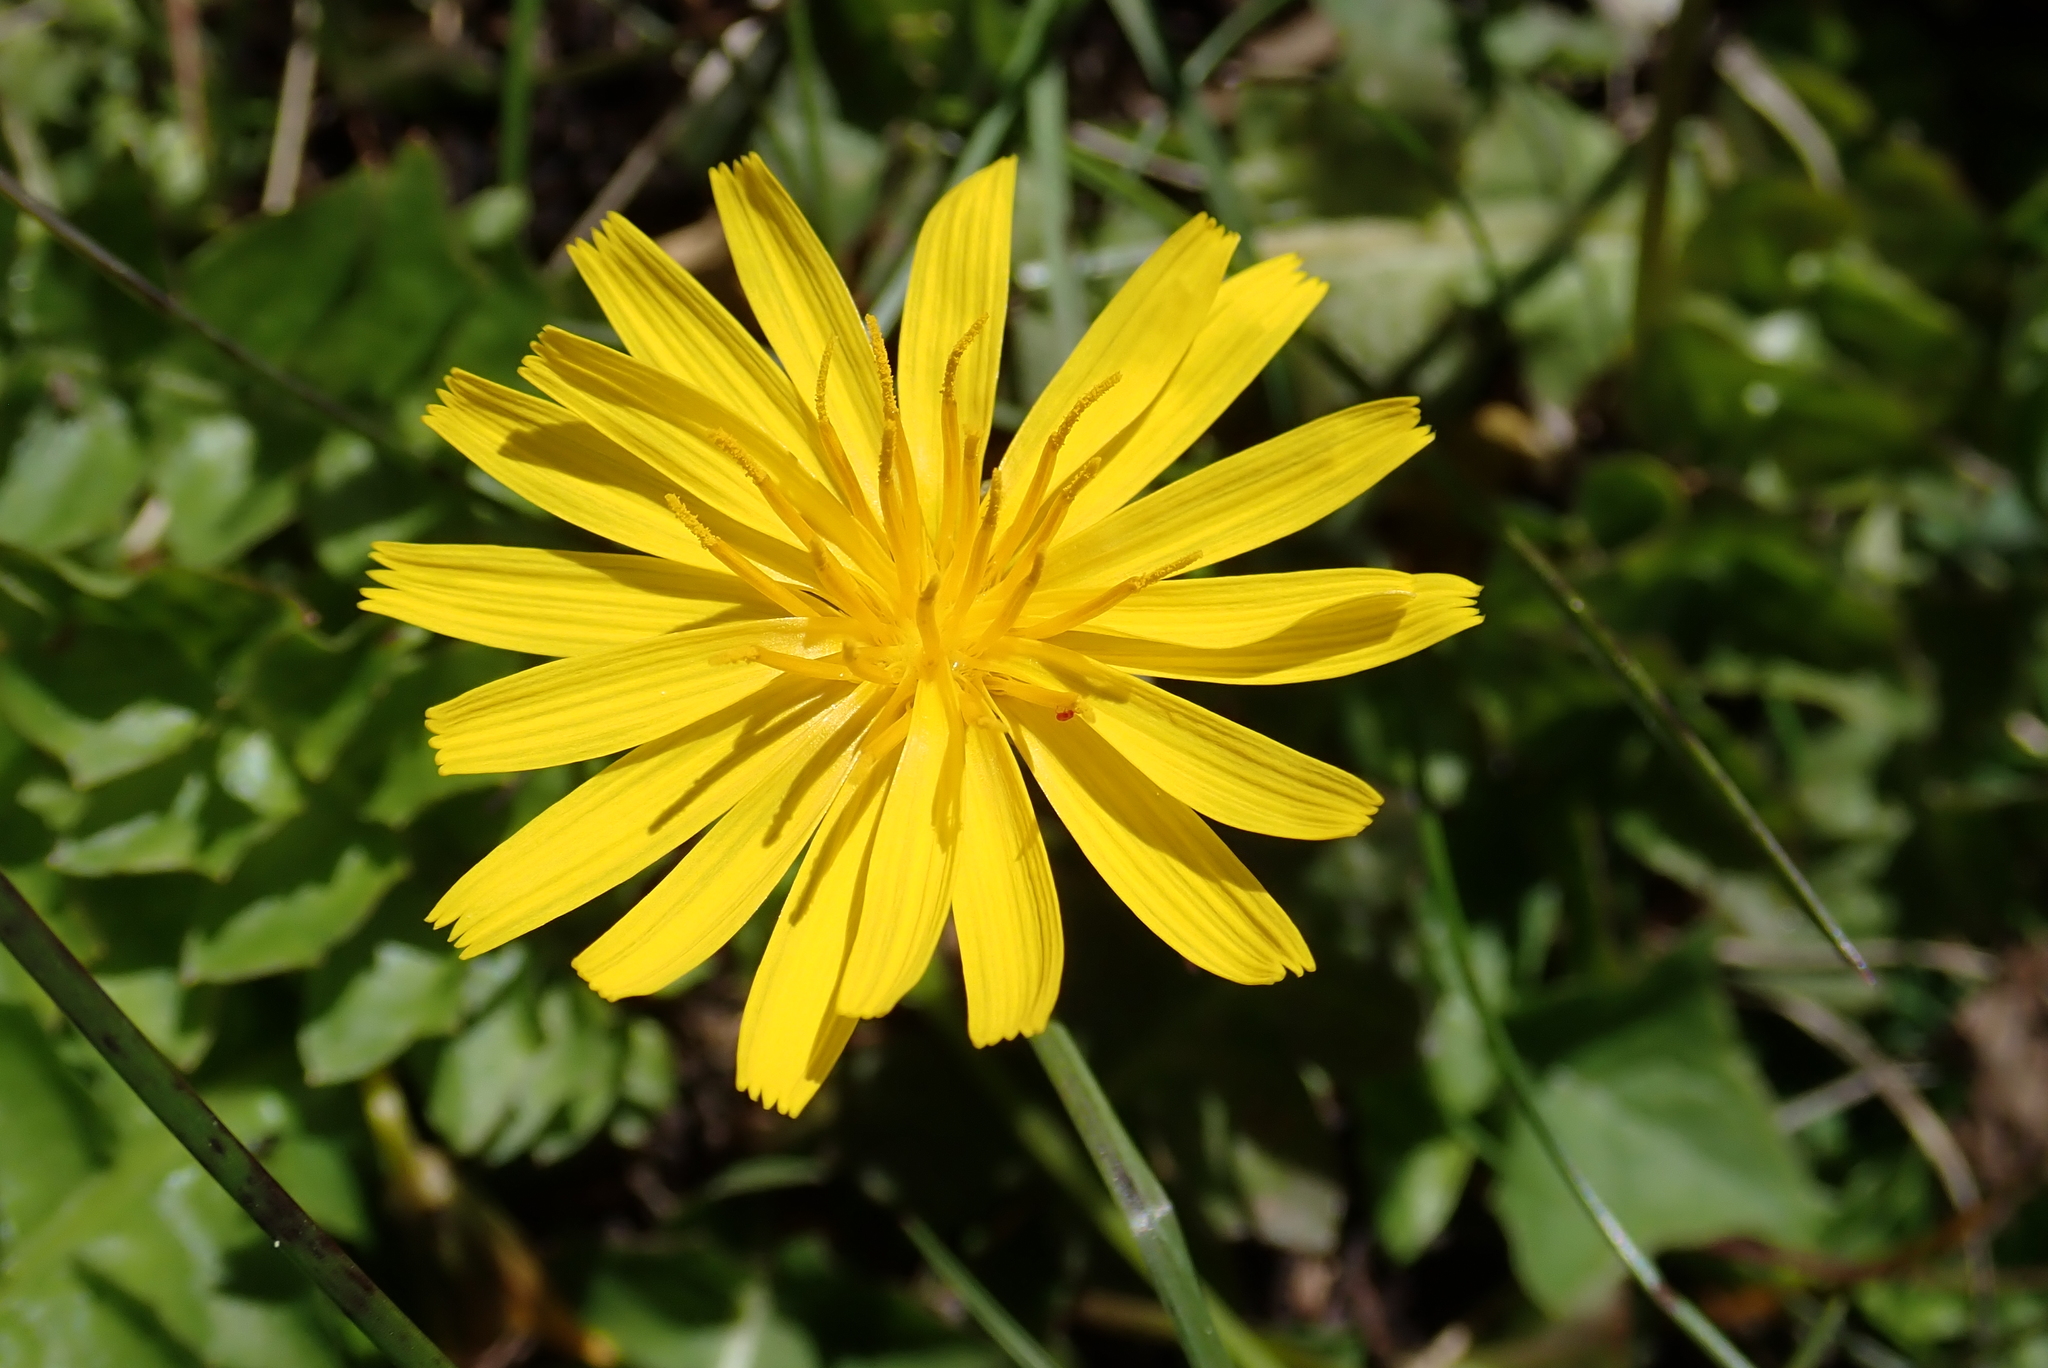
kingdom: Plantae
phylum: Tracheophyta
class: Magnoliopsida
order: Asterales
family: Asteraceae
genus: Aposeris
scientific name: Aposeris foetida
